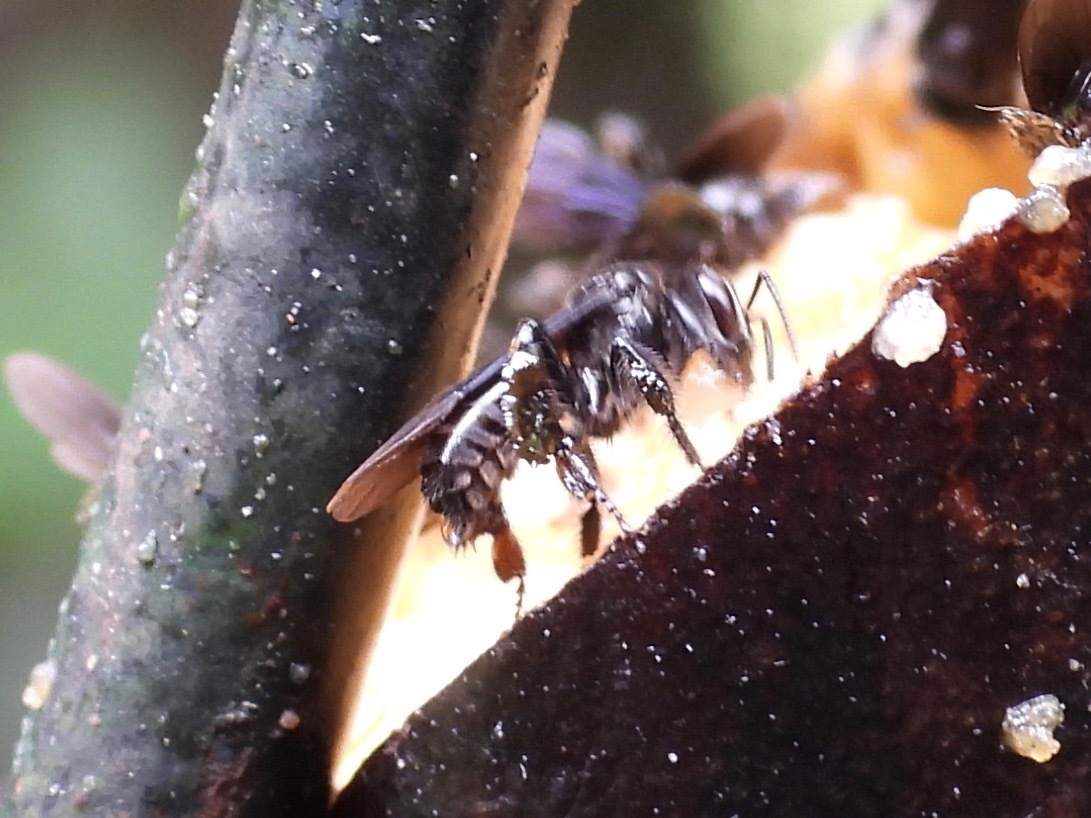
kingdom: Animalia
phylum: Arthropoda
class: Insecta
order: Hymenoptera
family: Apidae
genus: Trigona
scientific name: Trigona nigerrima
